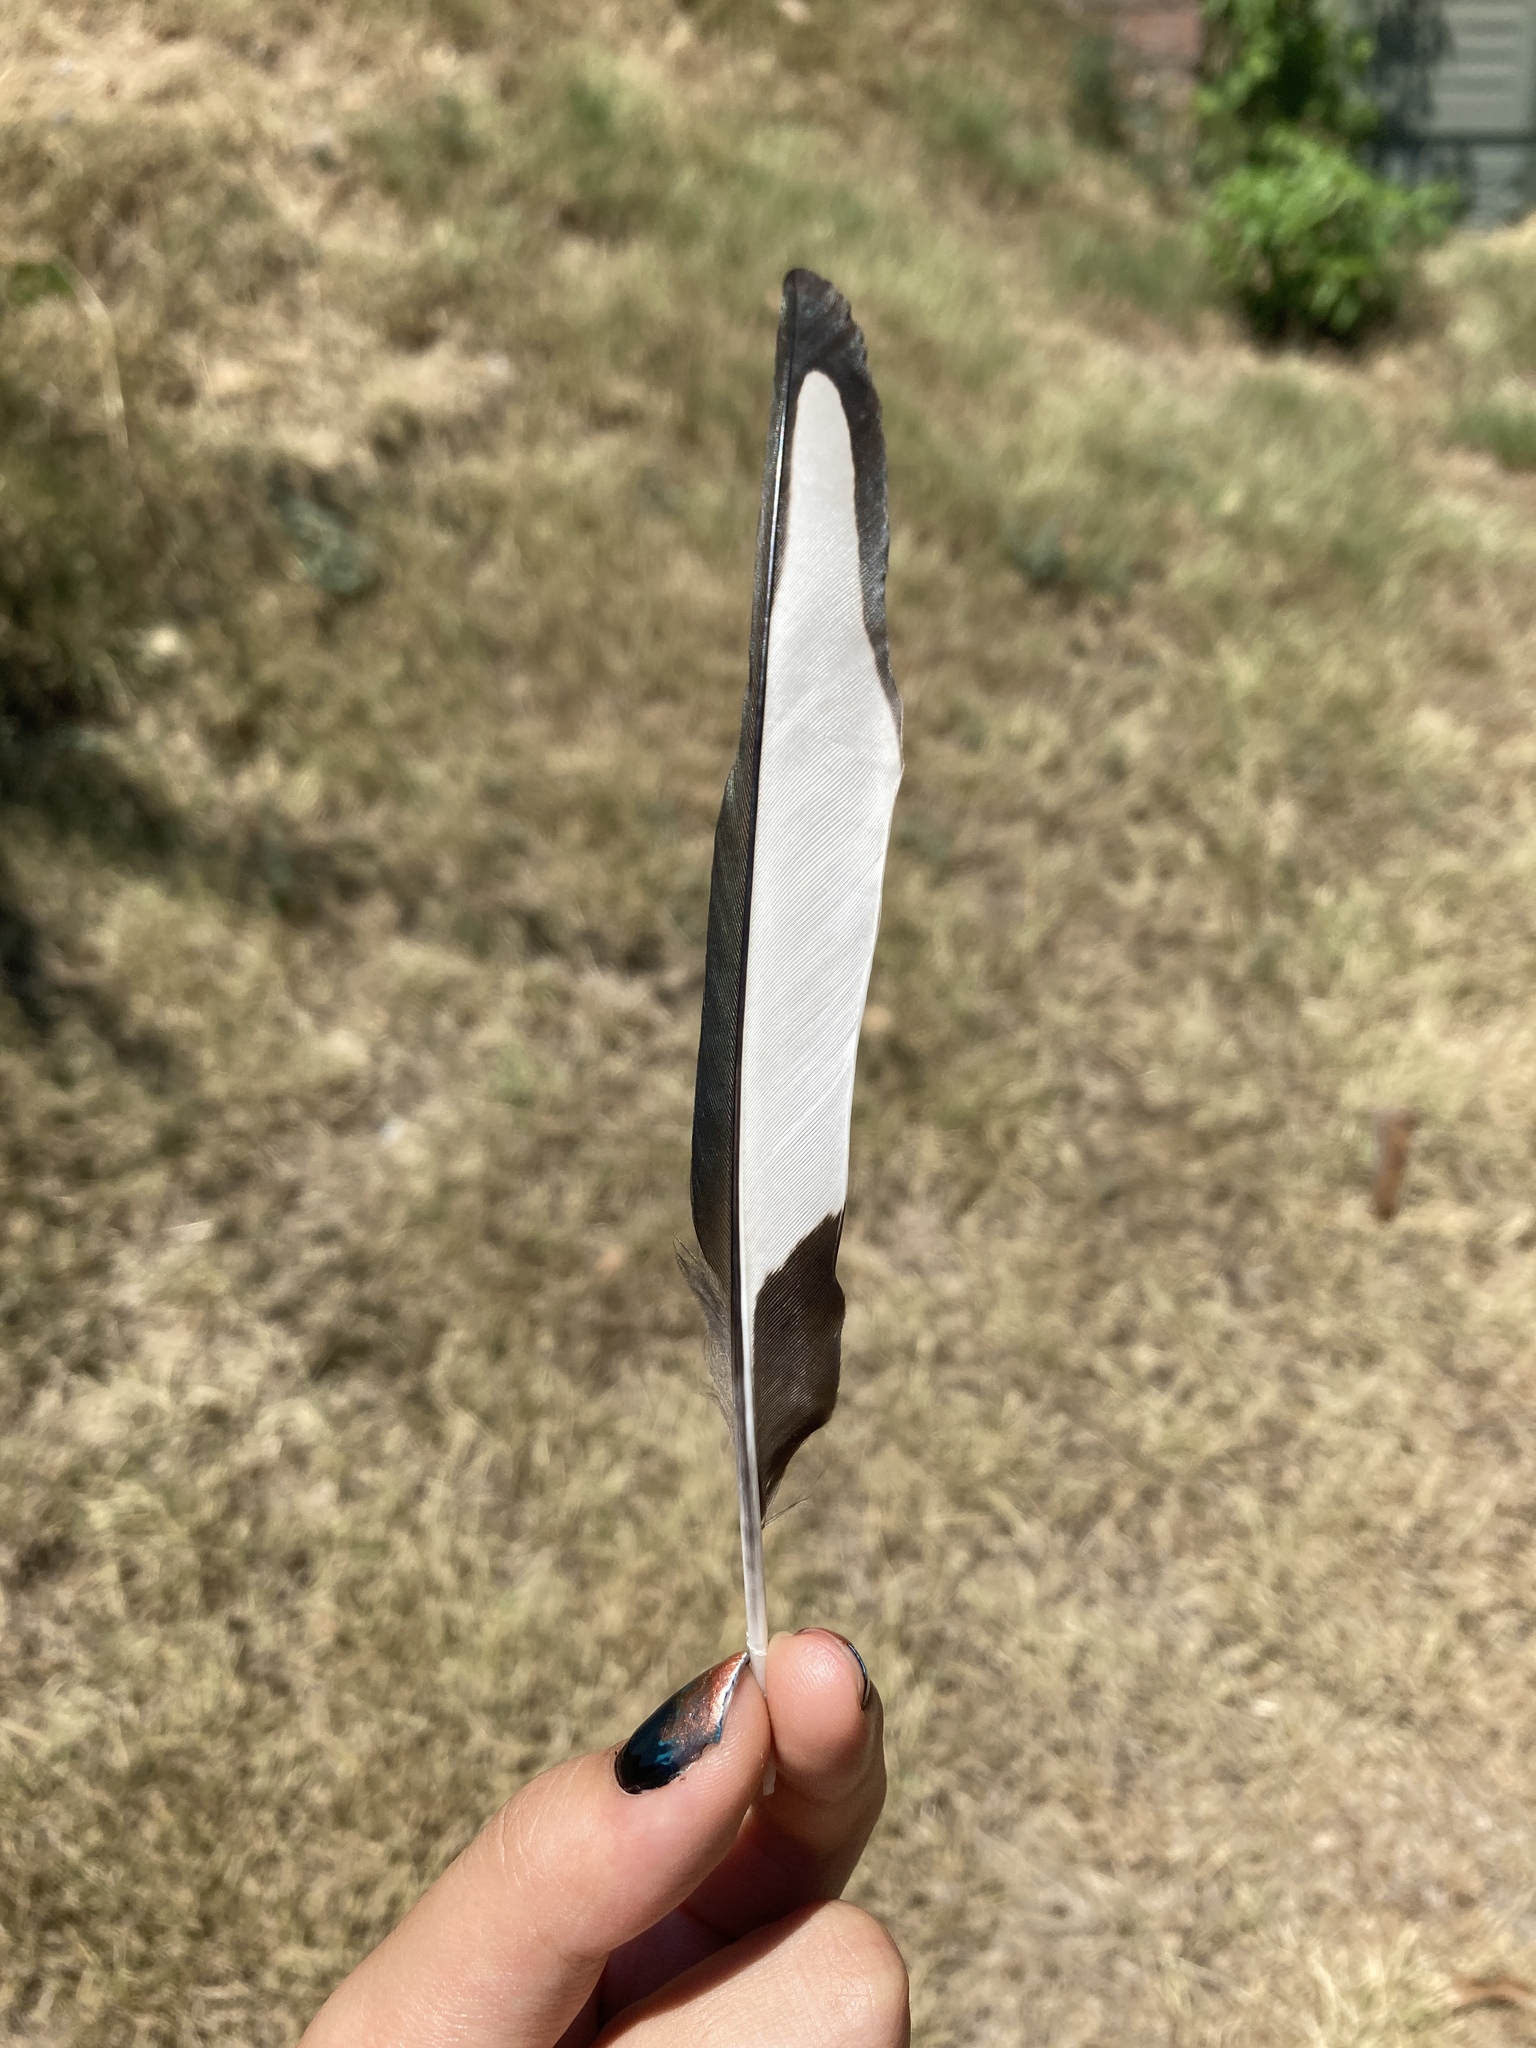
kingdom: Animalia
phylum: Chordata
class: Aves
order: Passeriformes
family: Corvidae
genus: Pica
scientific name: Pica pica
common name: Eurasian magpie
